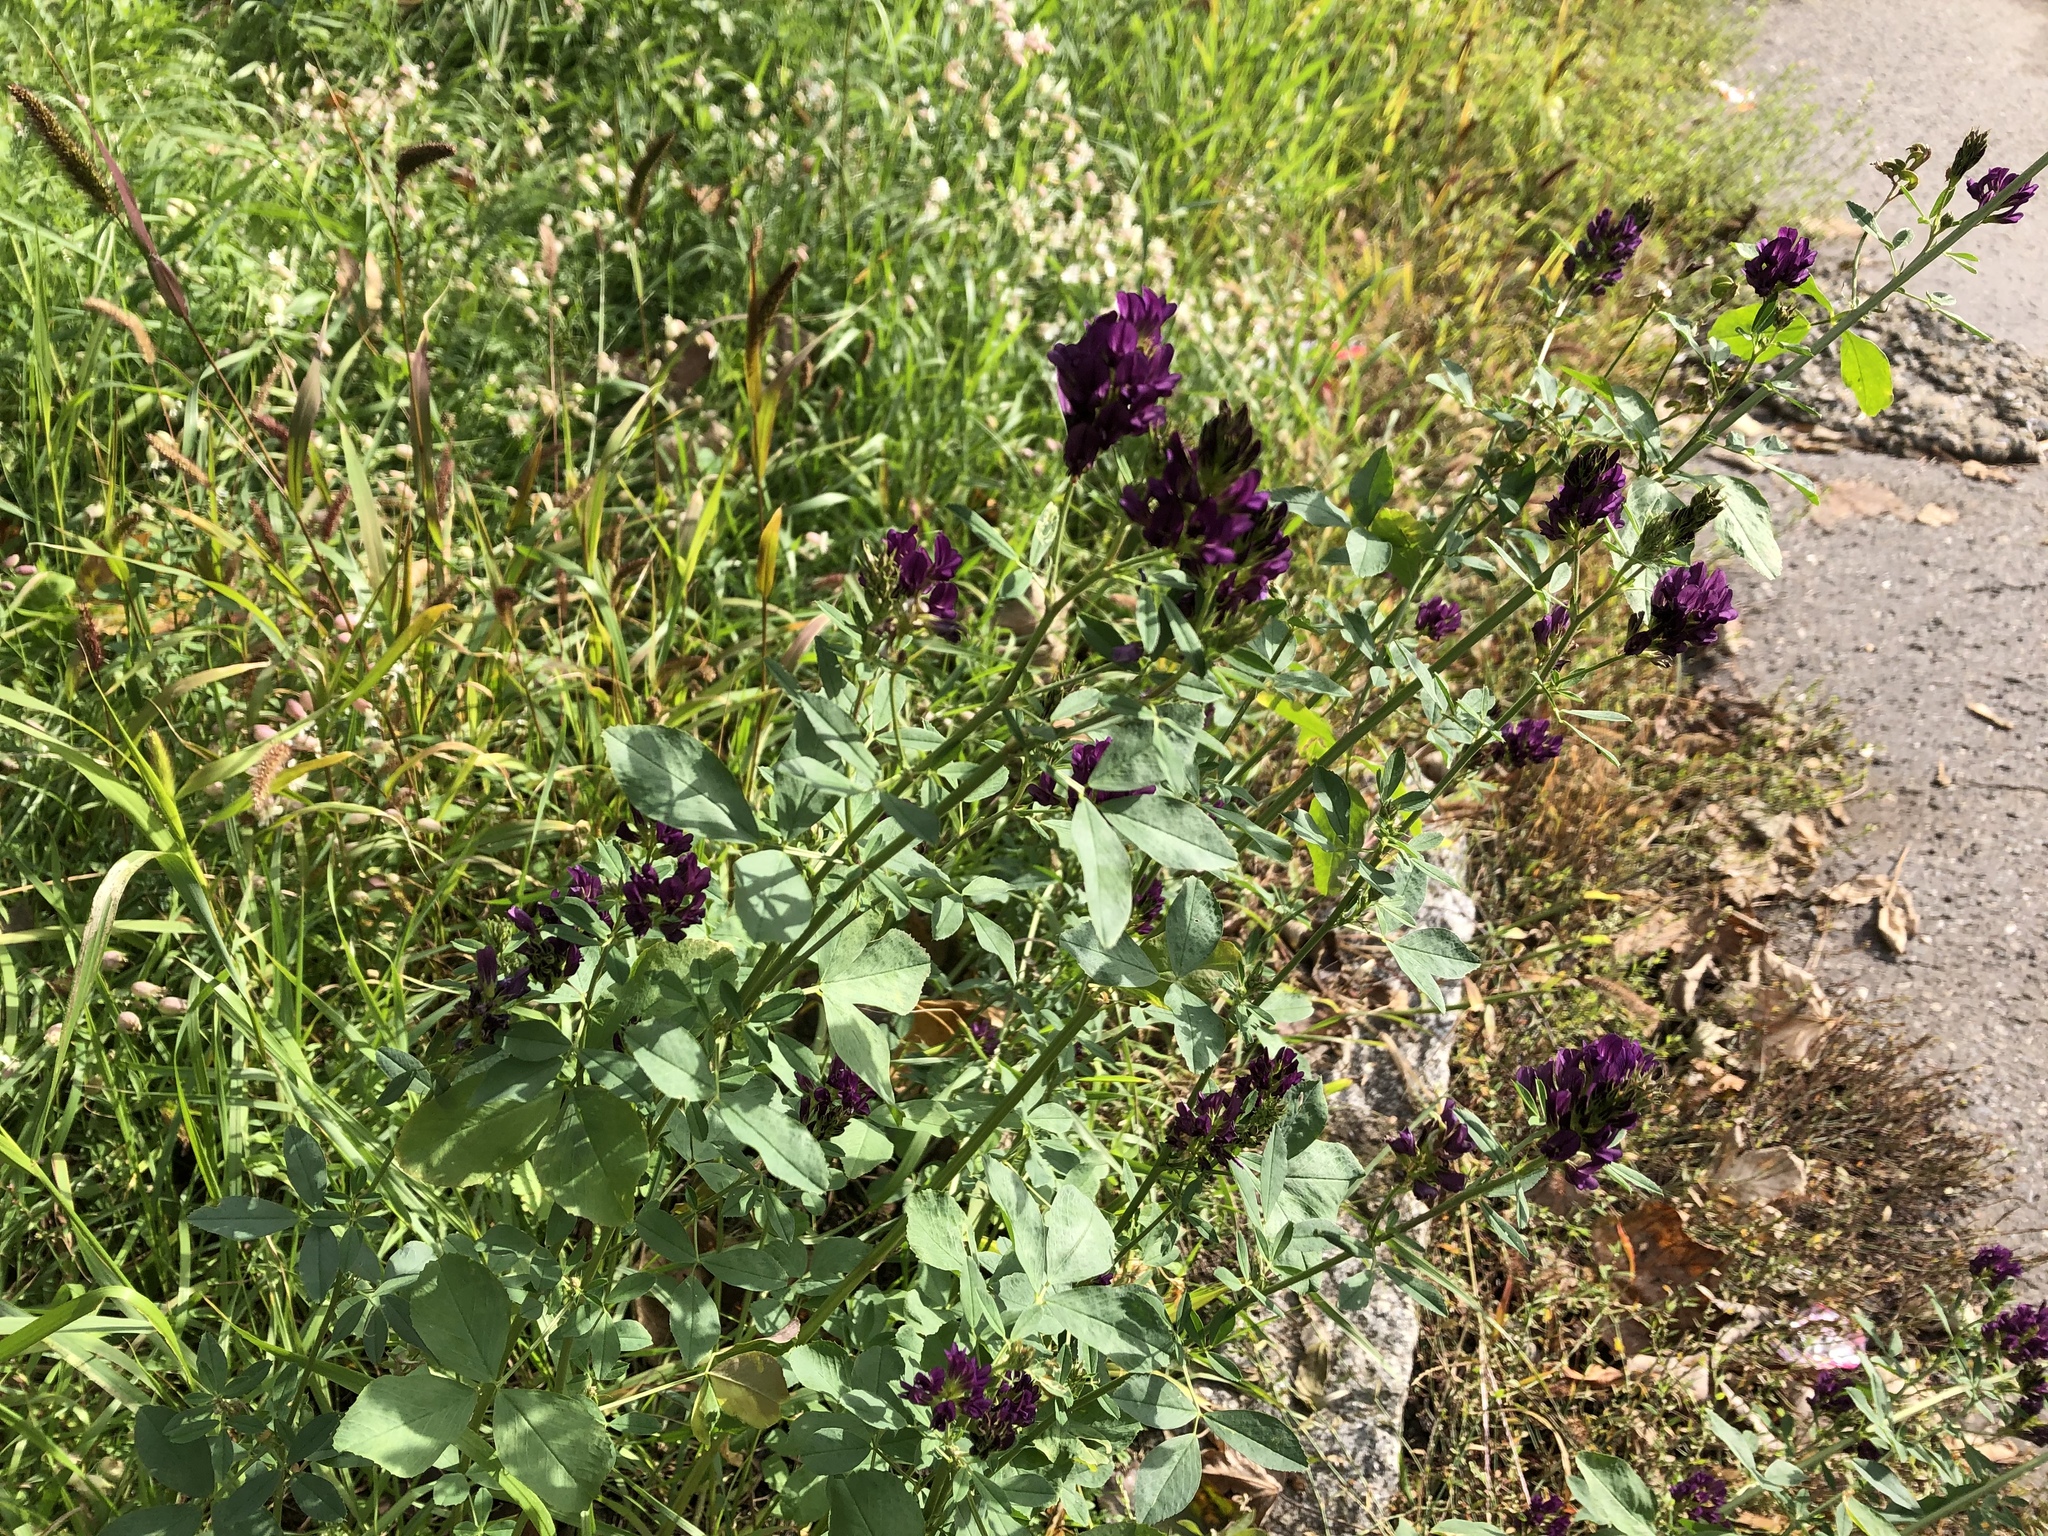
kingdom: Plantae
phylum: Tracheophyta
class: Magnoliopsida
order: Fabales
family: Fabaceae
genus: Medicago
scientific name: Medicago sativa
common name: Alfalfa
